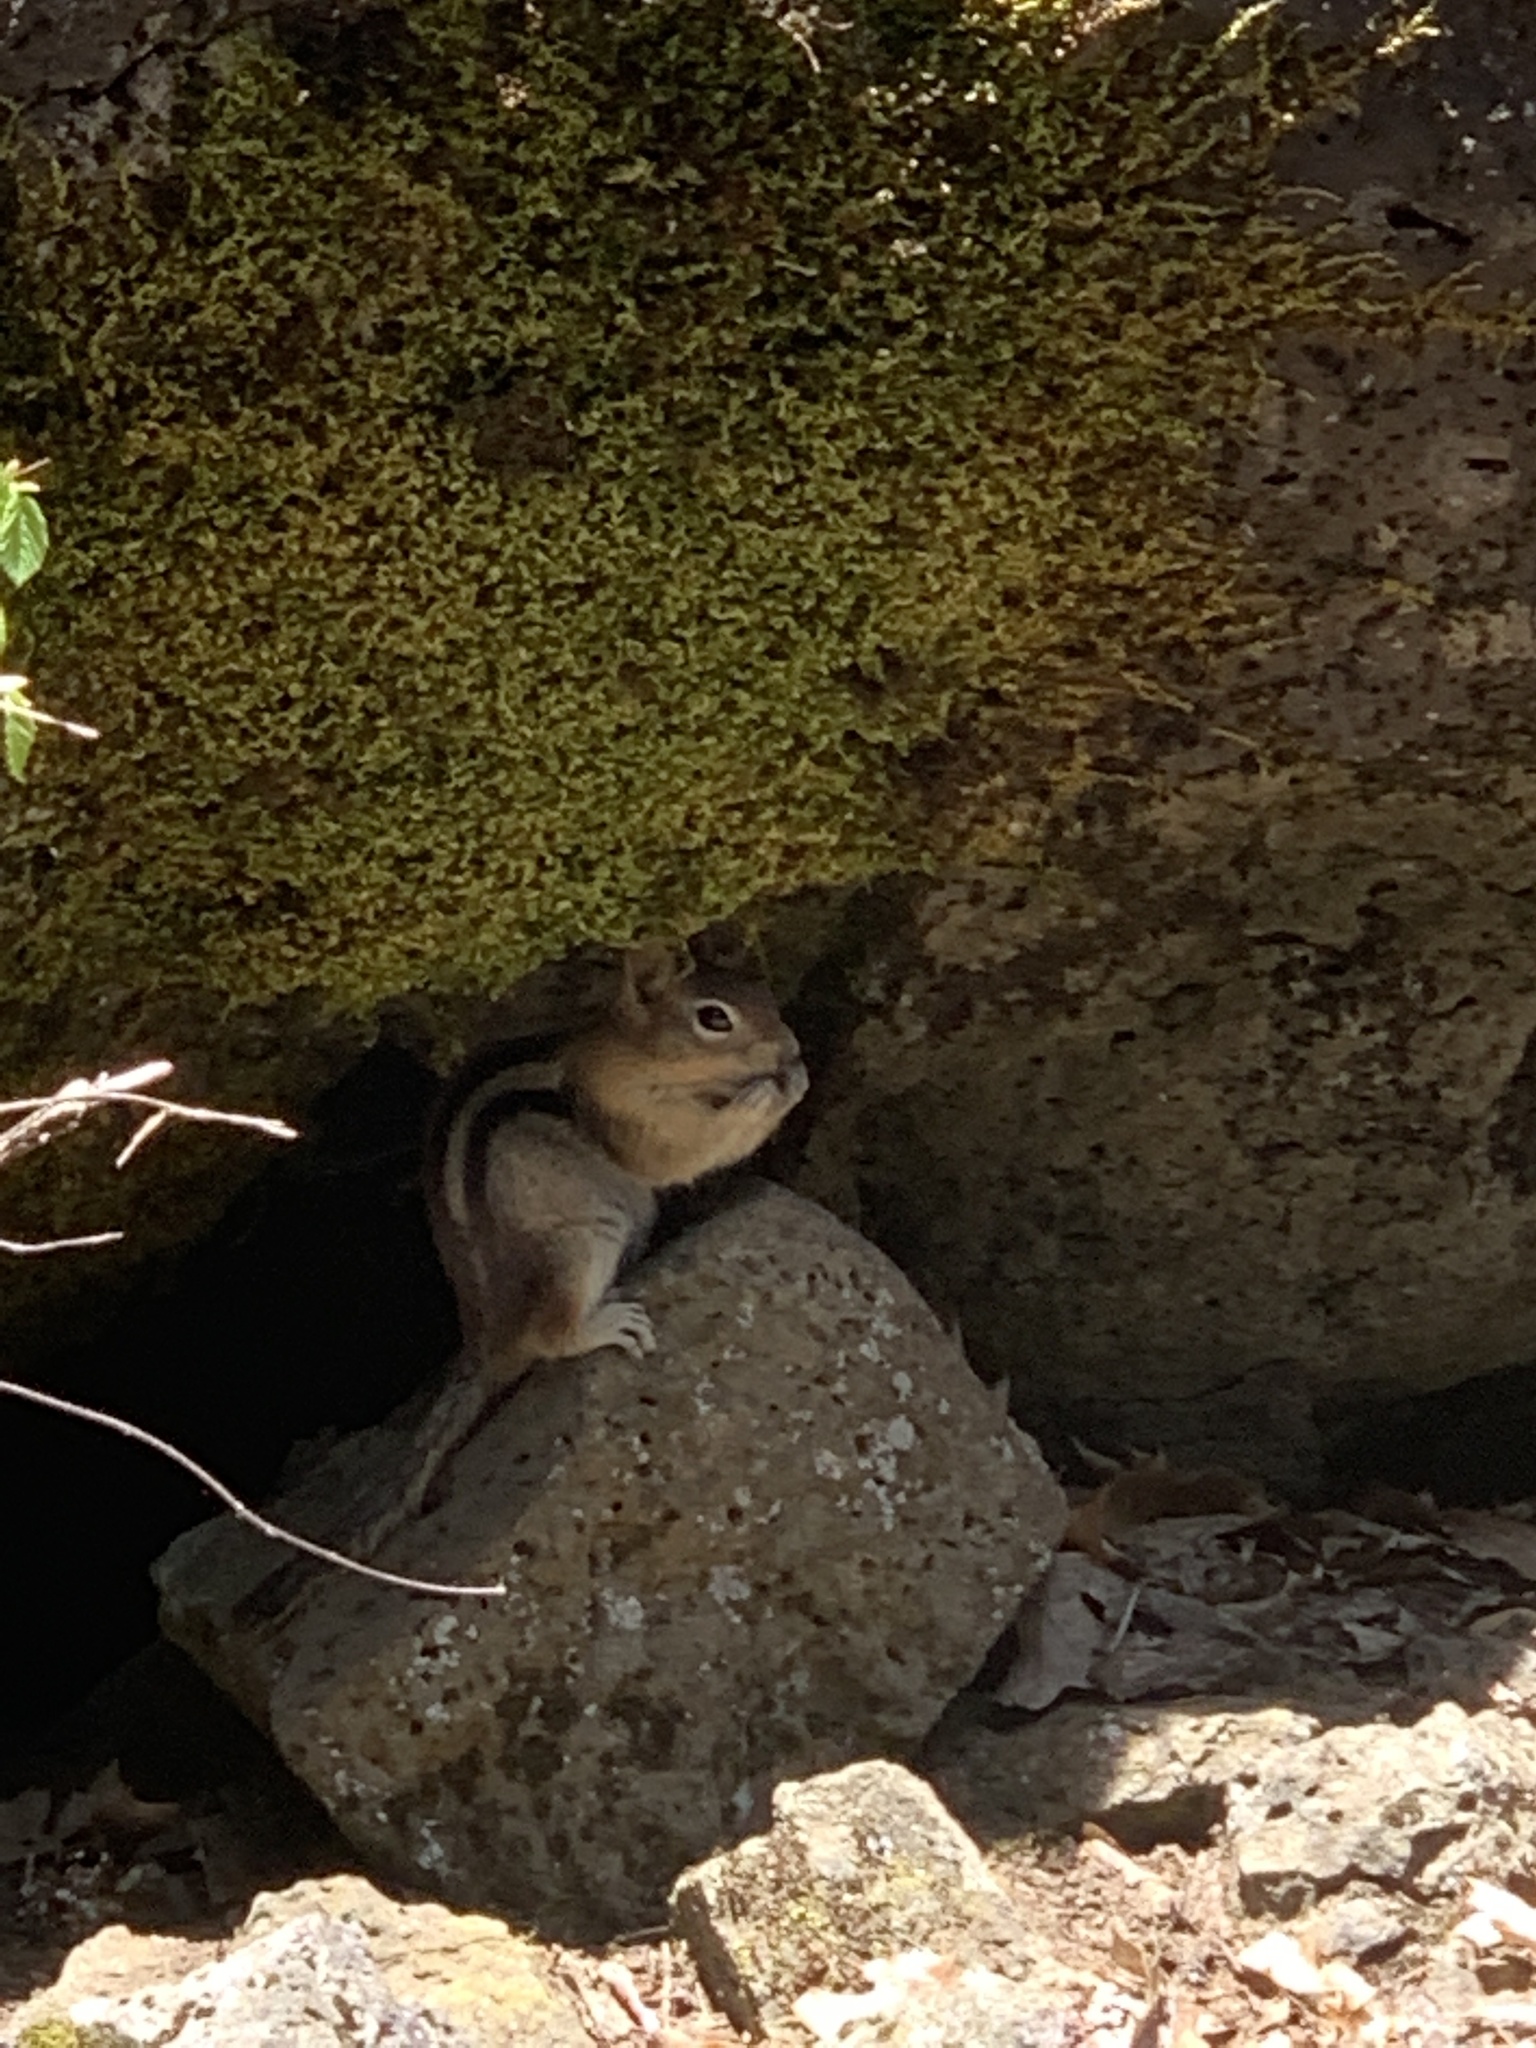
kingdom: Animalia
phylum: Chordata
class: Mammalia
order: Rodentia
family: Sciuridae
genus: Callospermophilus
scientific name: Callospermophilus lateralis
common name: Golden-mantled ground squirrel
